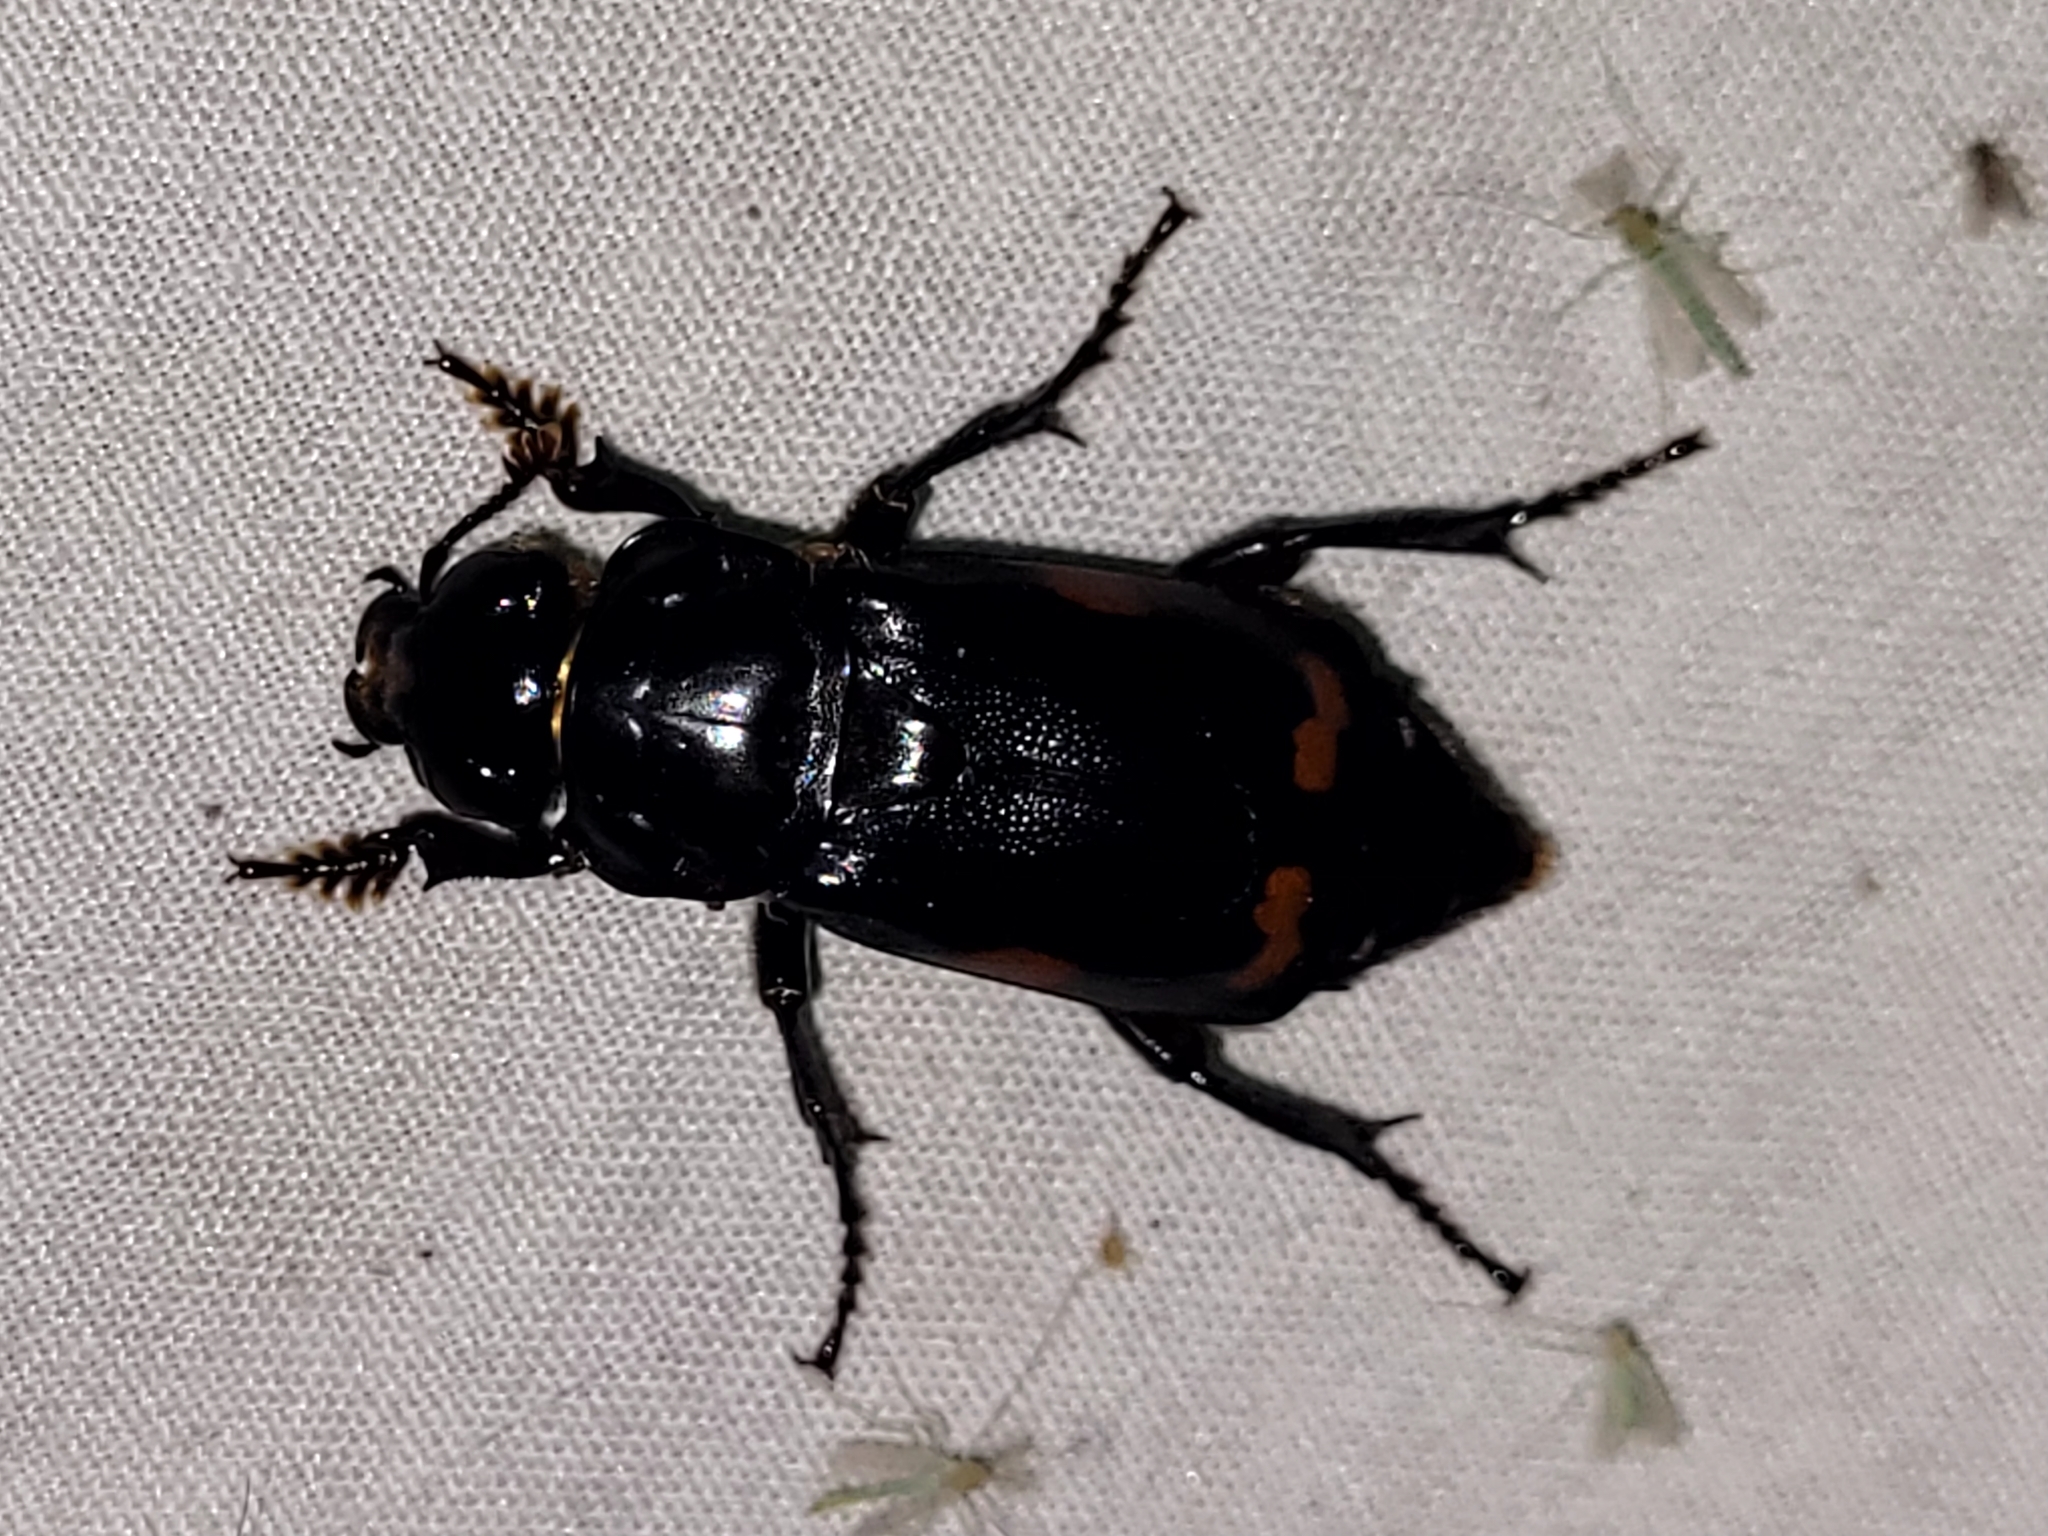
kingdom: Animalia
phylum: Arthropoda
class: Insecta
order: Coleoptera
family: Staphylinidae
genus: Nicrophorus
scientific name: Nicrophorus pustulatus
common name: Pustulated carrion beetle
